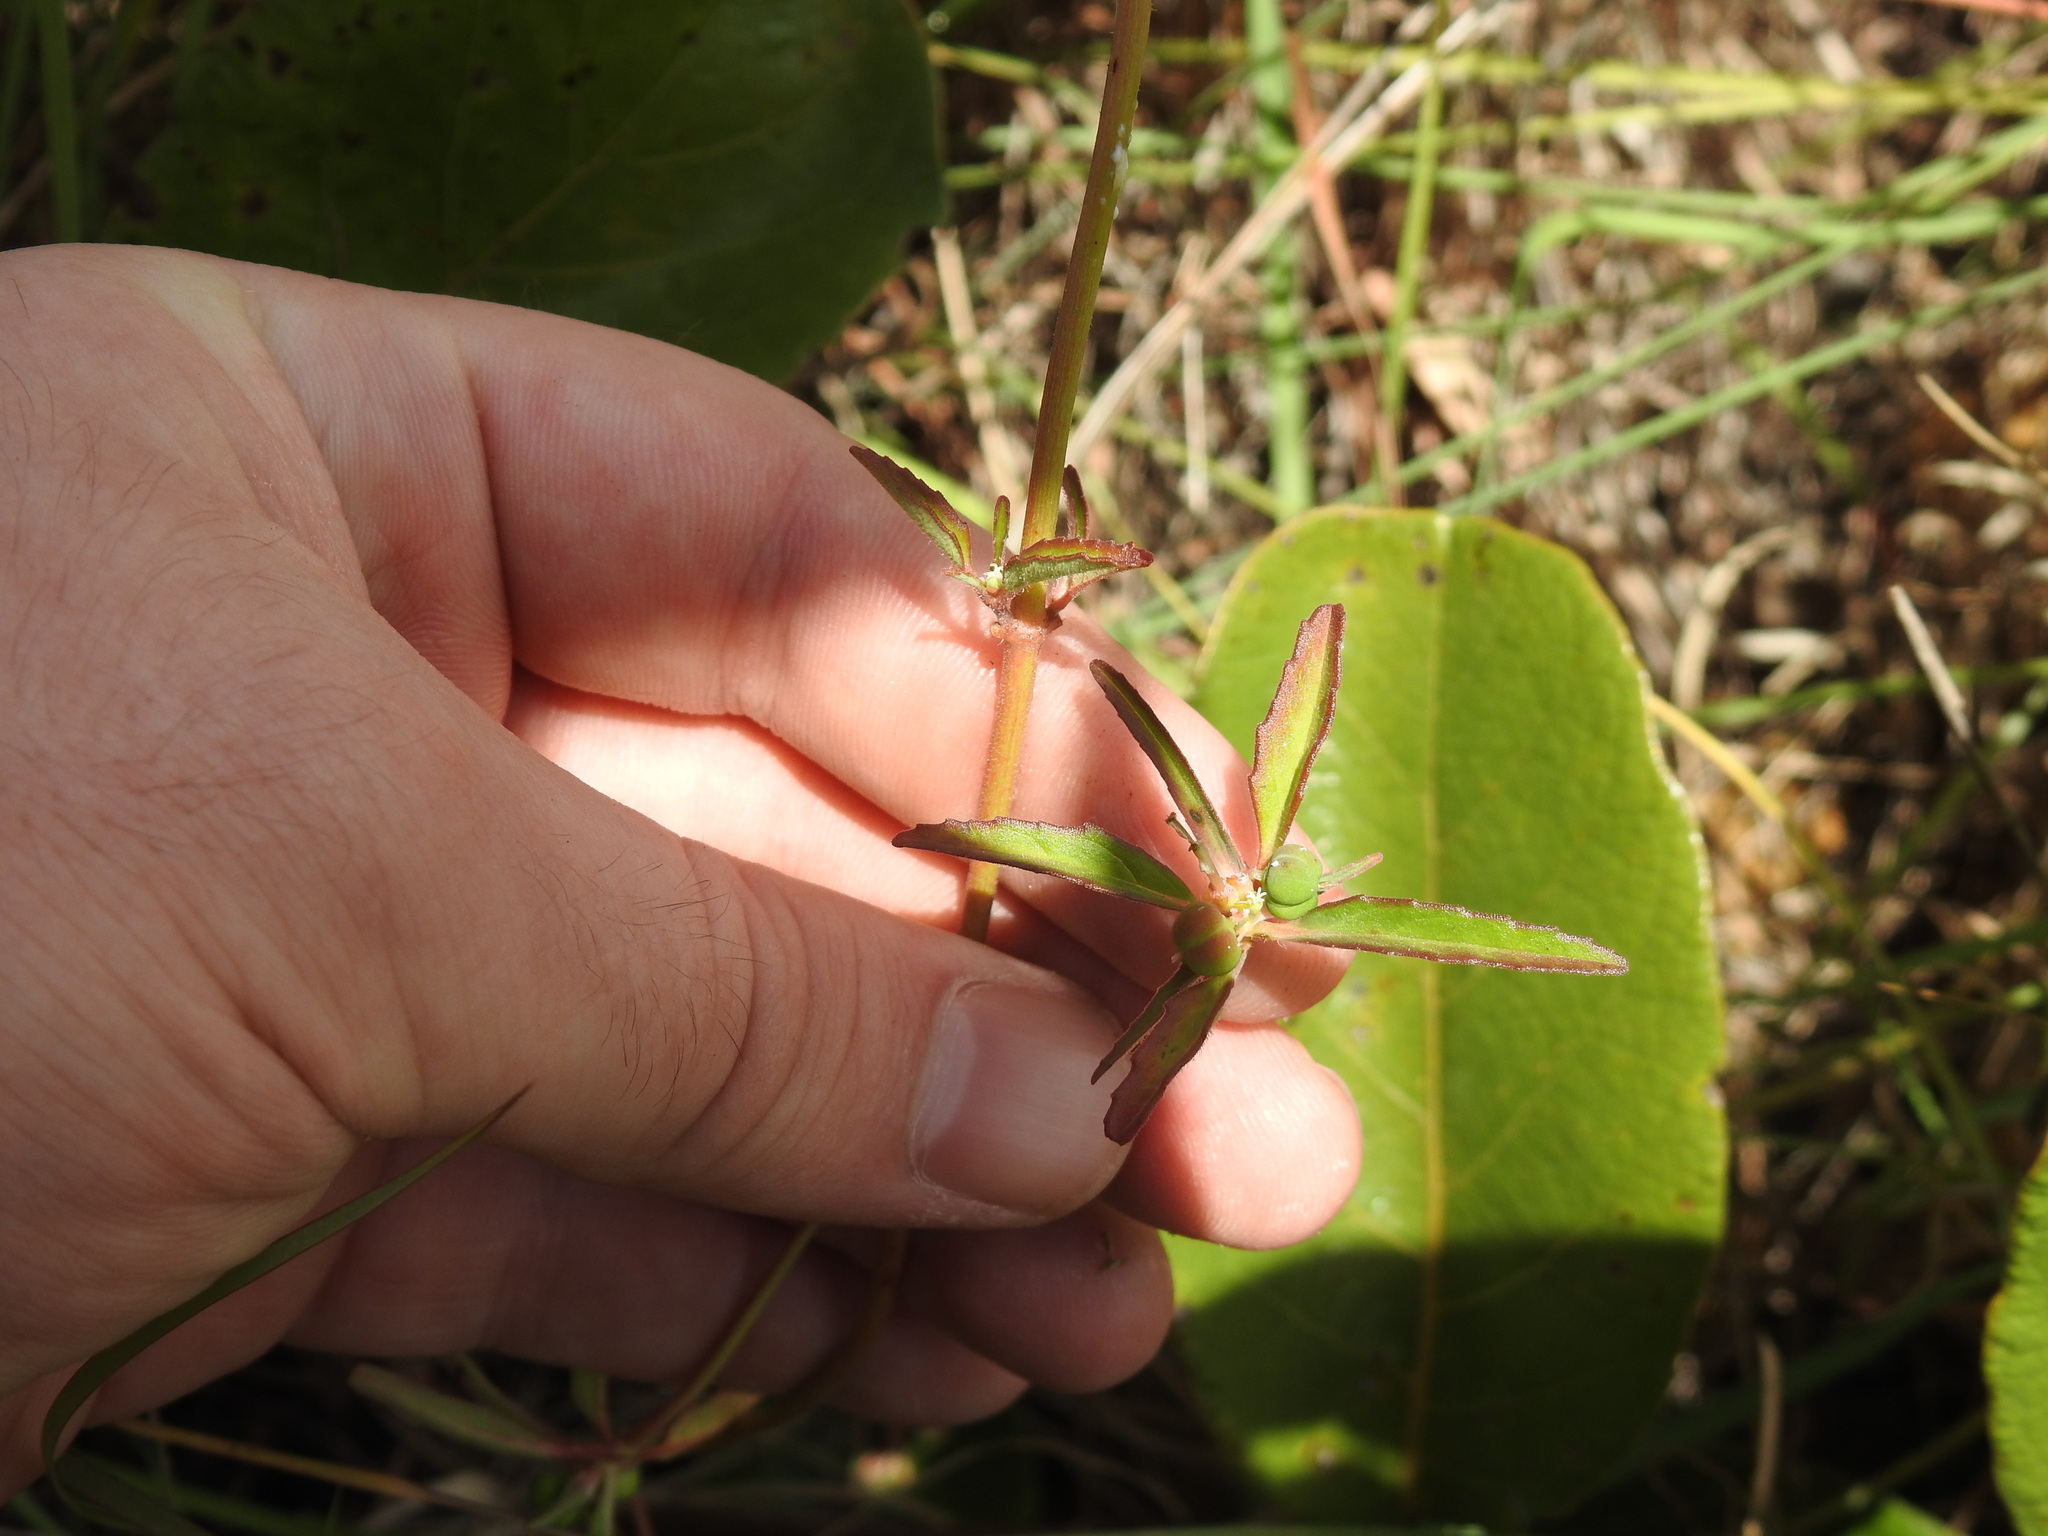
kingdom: Plantae
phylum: Tracheophyta
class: Magnoliopsida
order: Malpighiales
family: Euphorbiaceae
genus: Euphorbia
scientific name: Euphorbia dentata
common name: Dentate spurge
